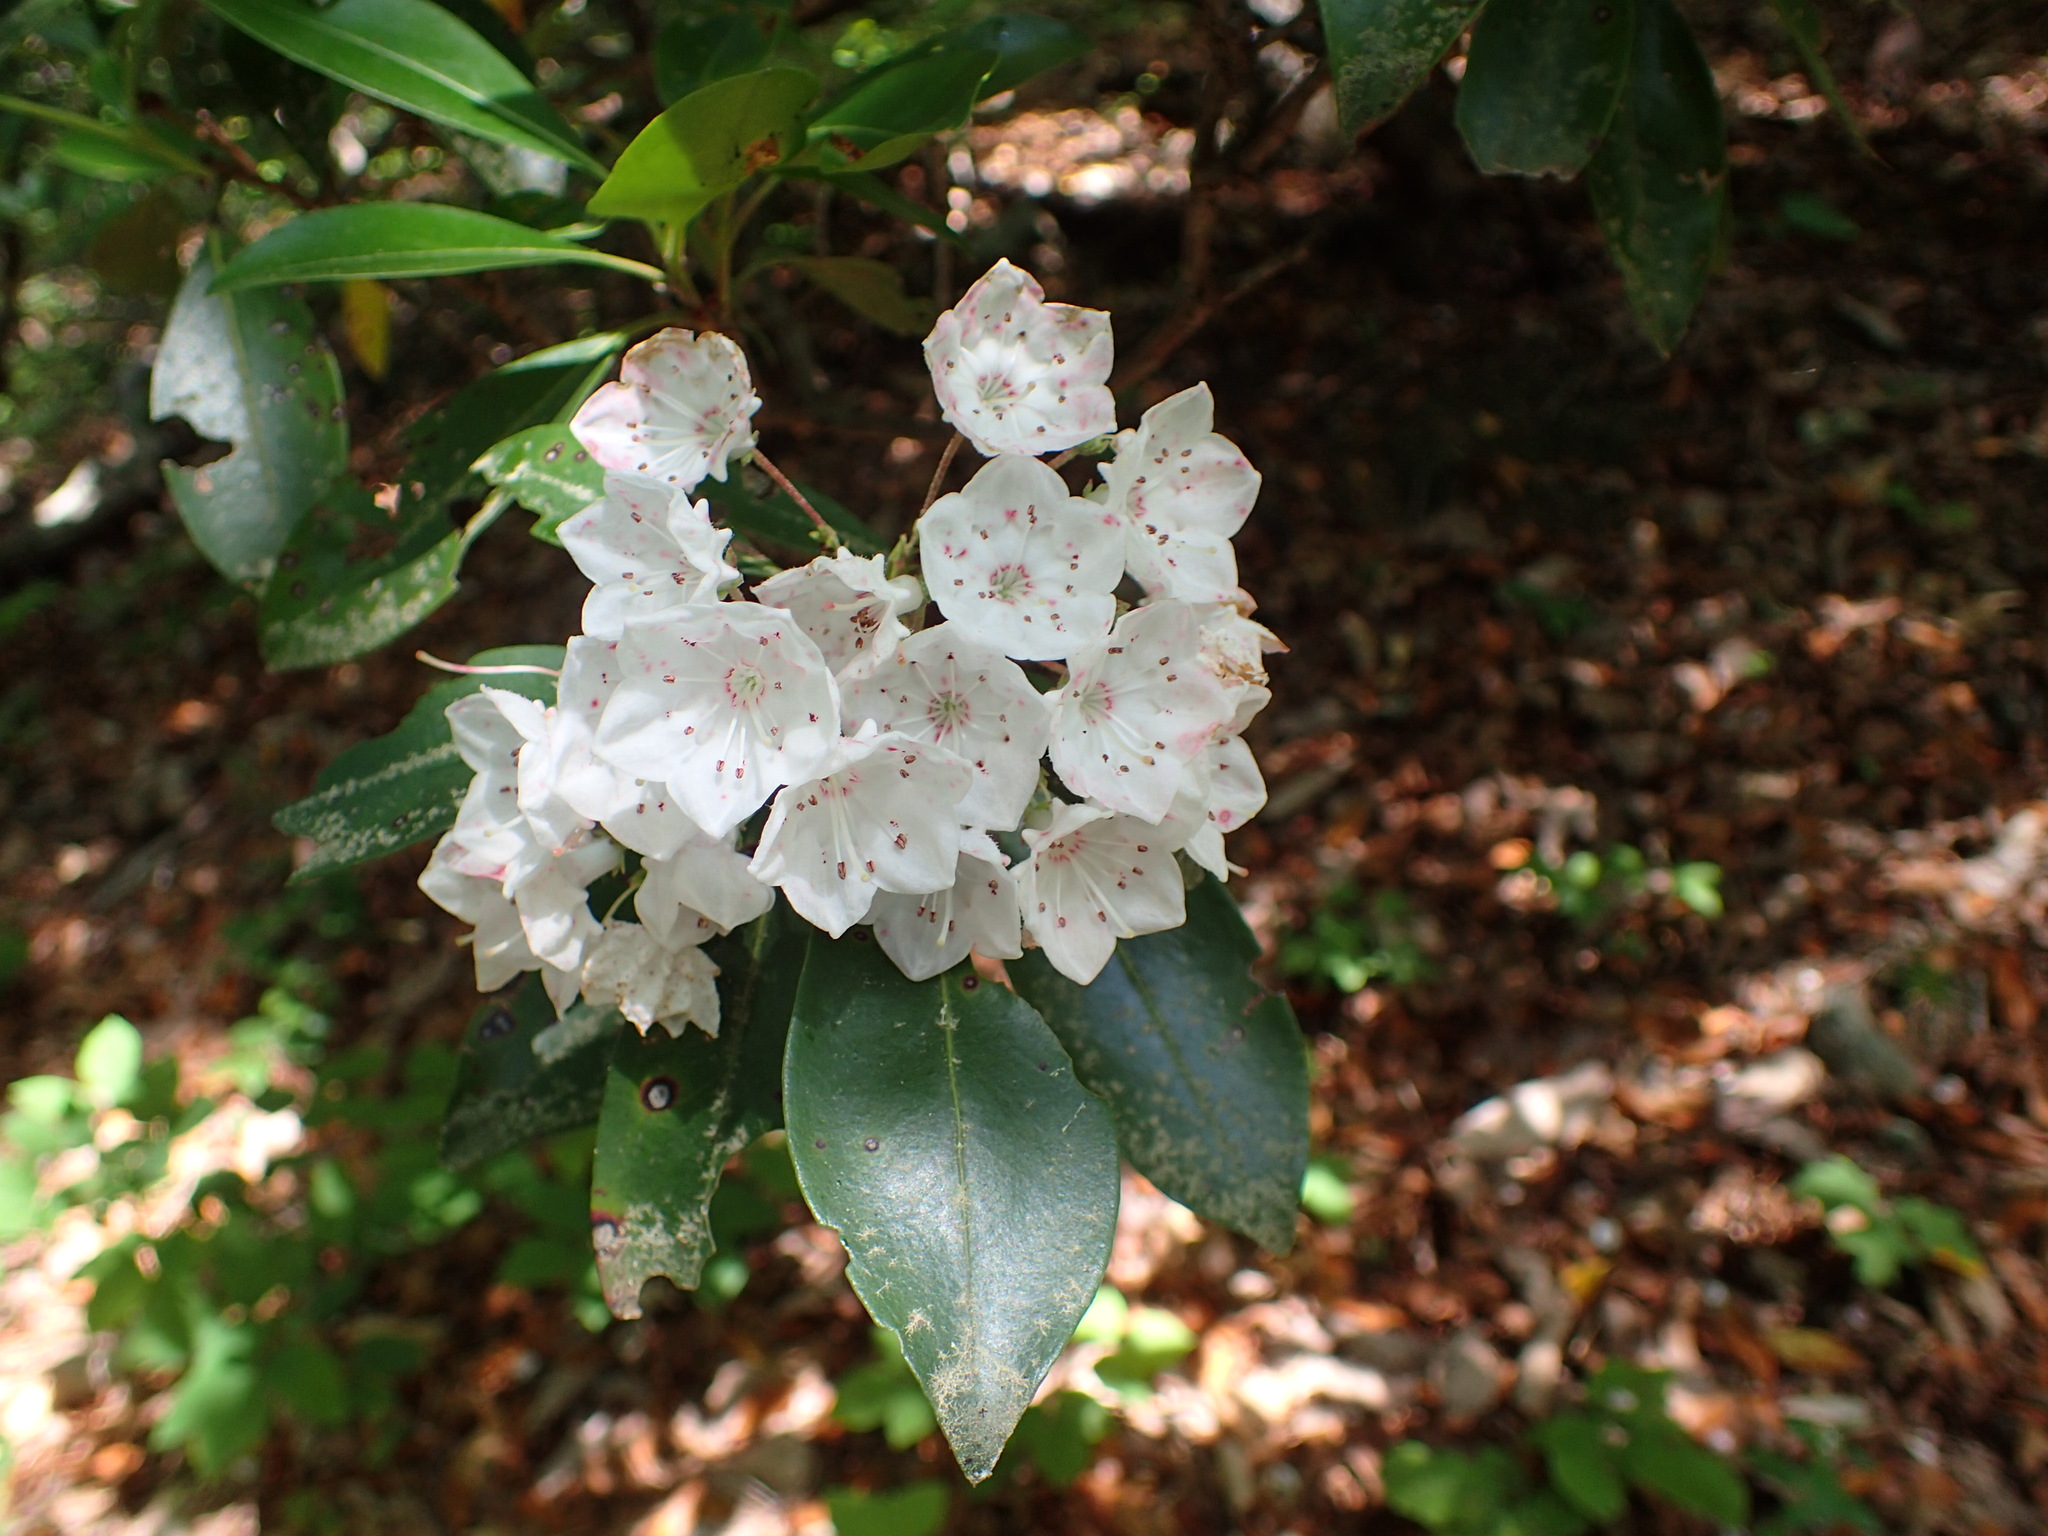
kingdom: Plantae
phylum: Tracheophyta
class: Magnoliopsida
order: Ericales
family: Ericaceae
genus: Kalmia
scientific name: Kalmia latifolia
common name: Mountain-laurel
